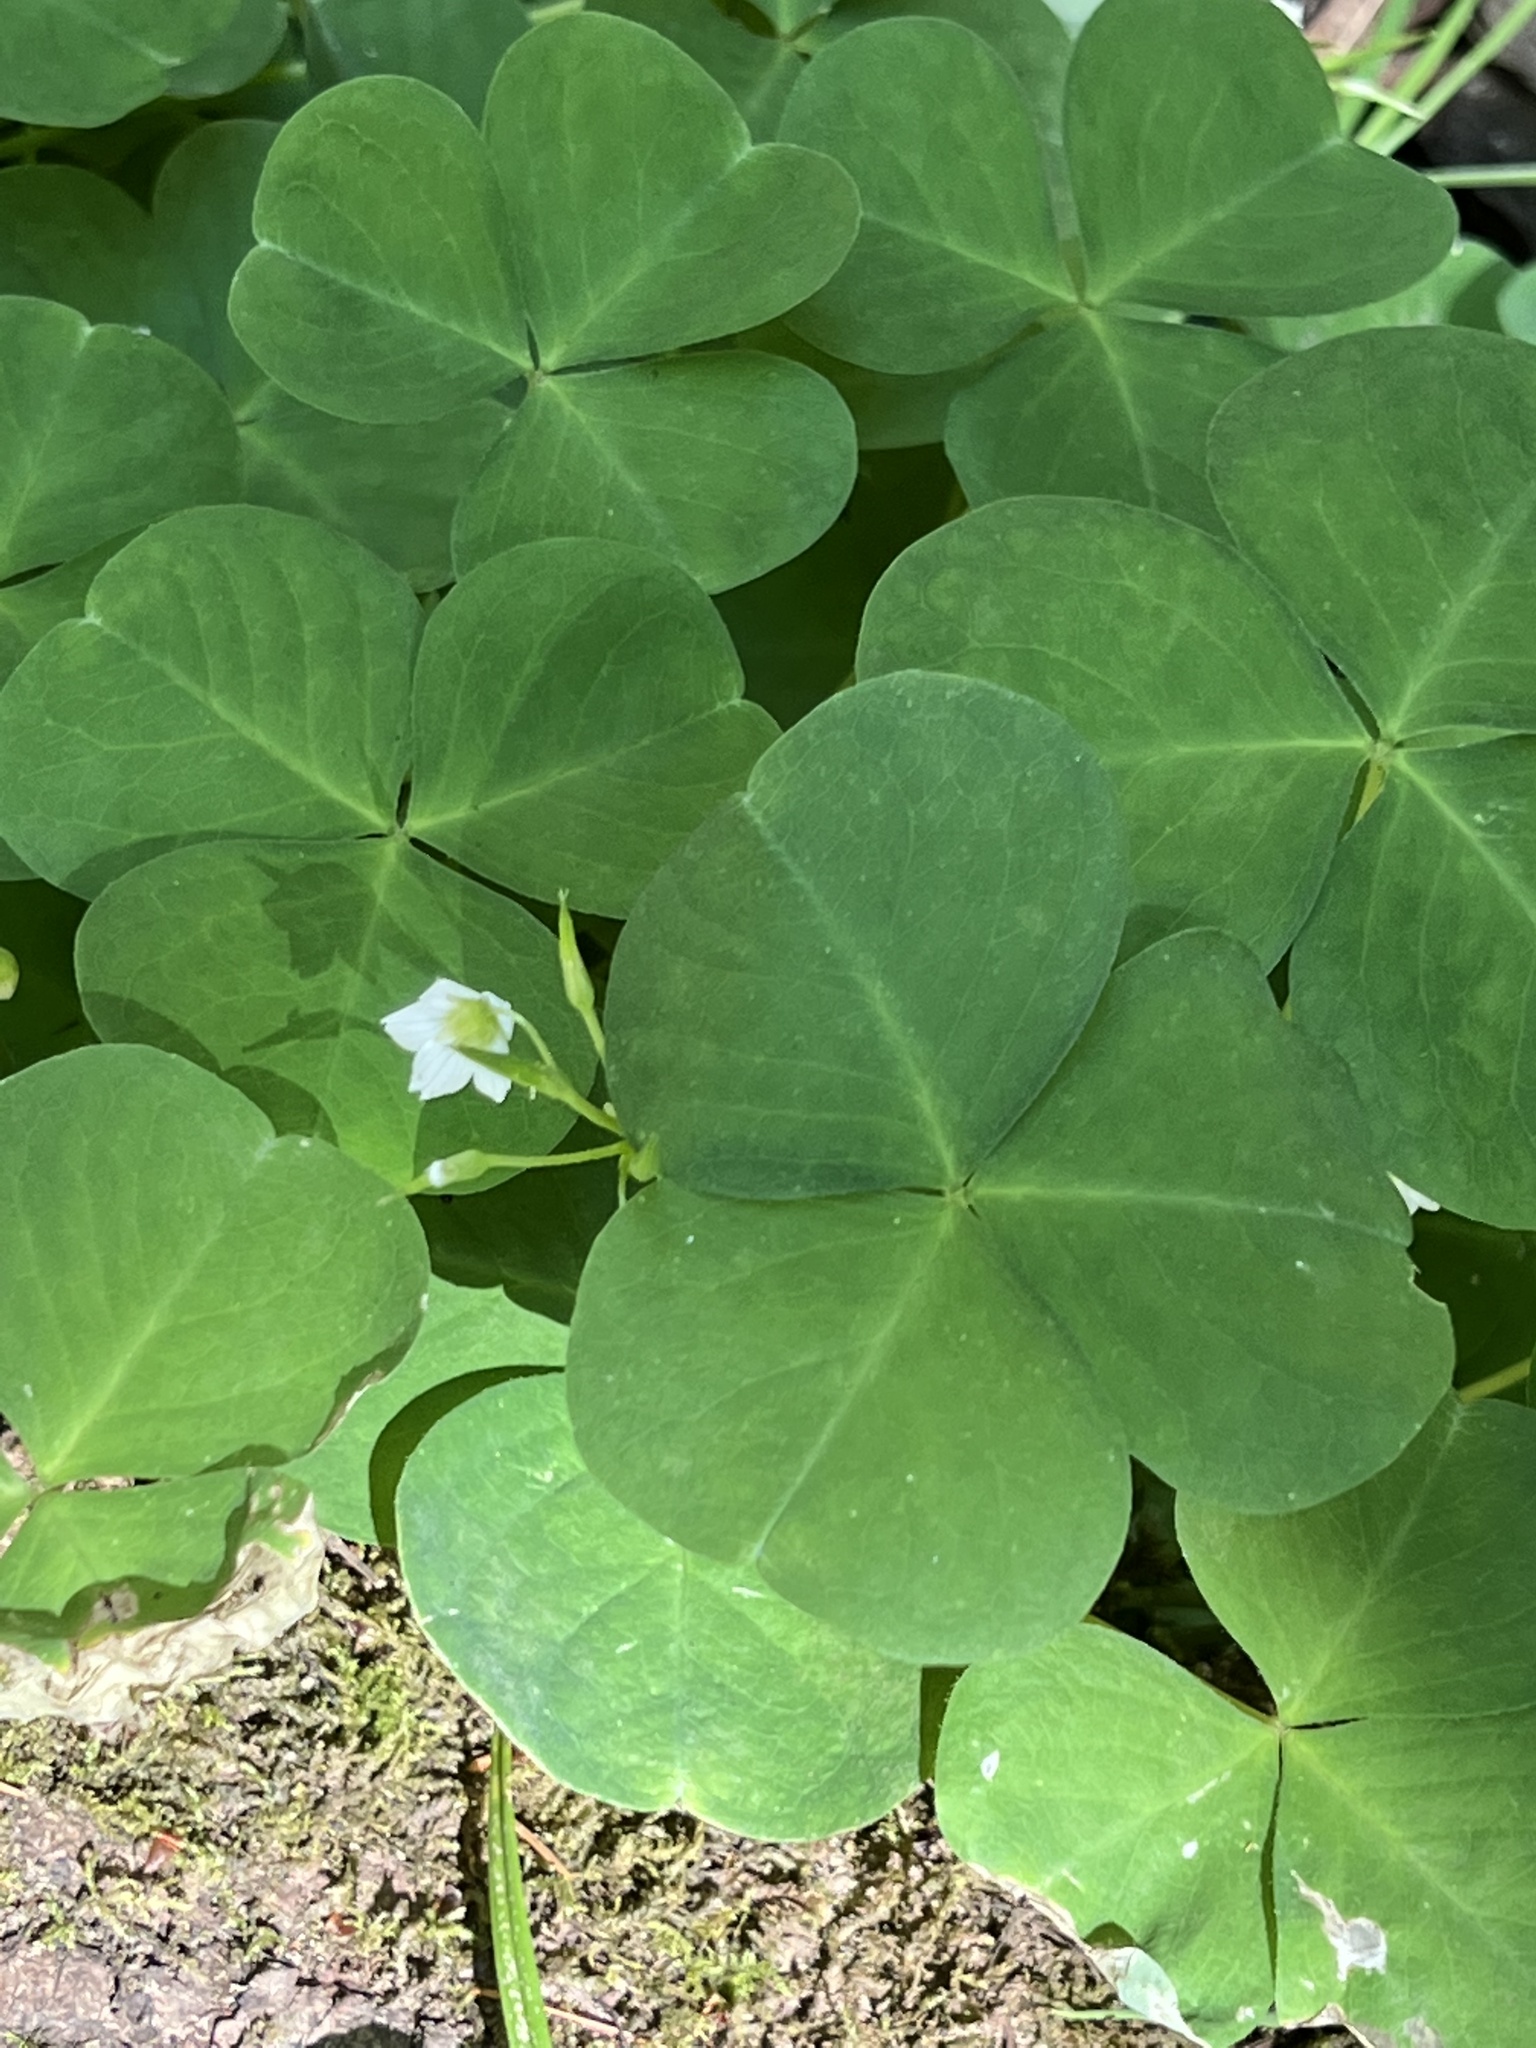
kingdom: Plantae
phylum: Tracheophyta
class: Magnoliopsida
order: Oxalidales
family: Oxalidaceae
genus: Oxalis
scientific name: Oxalis trilliifolia
